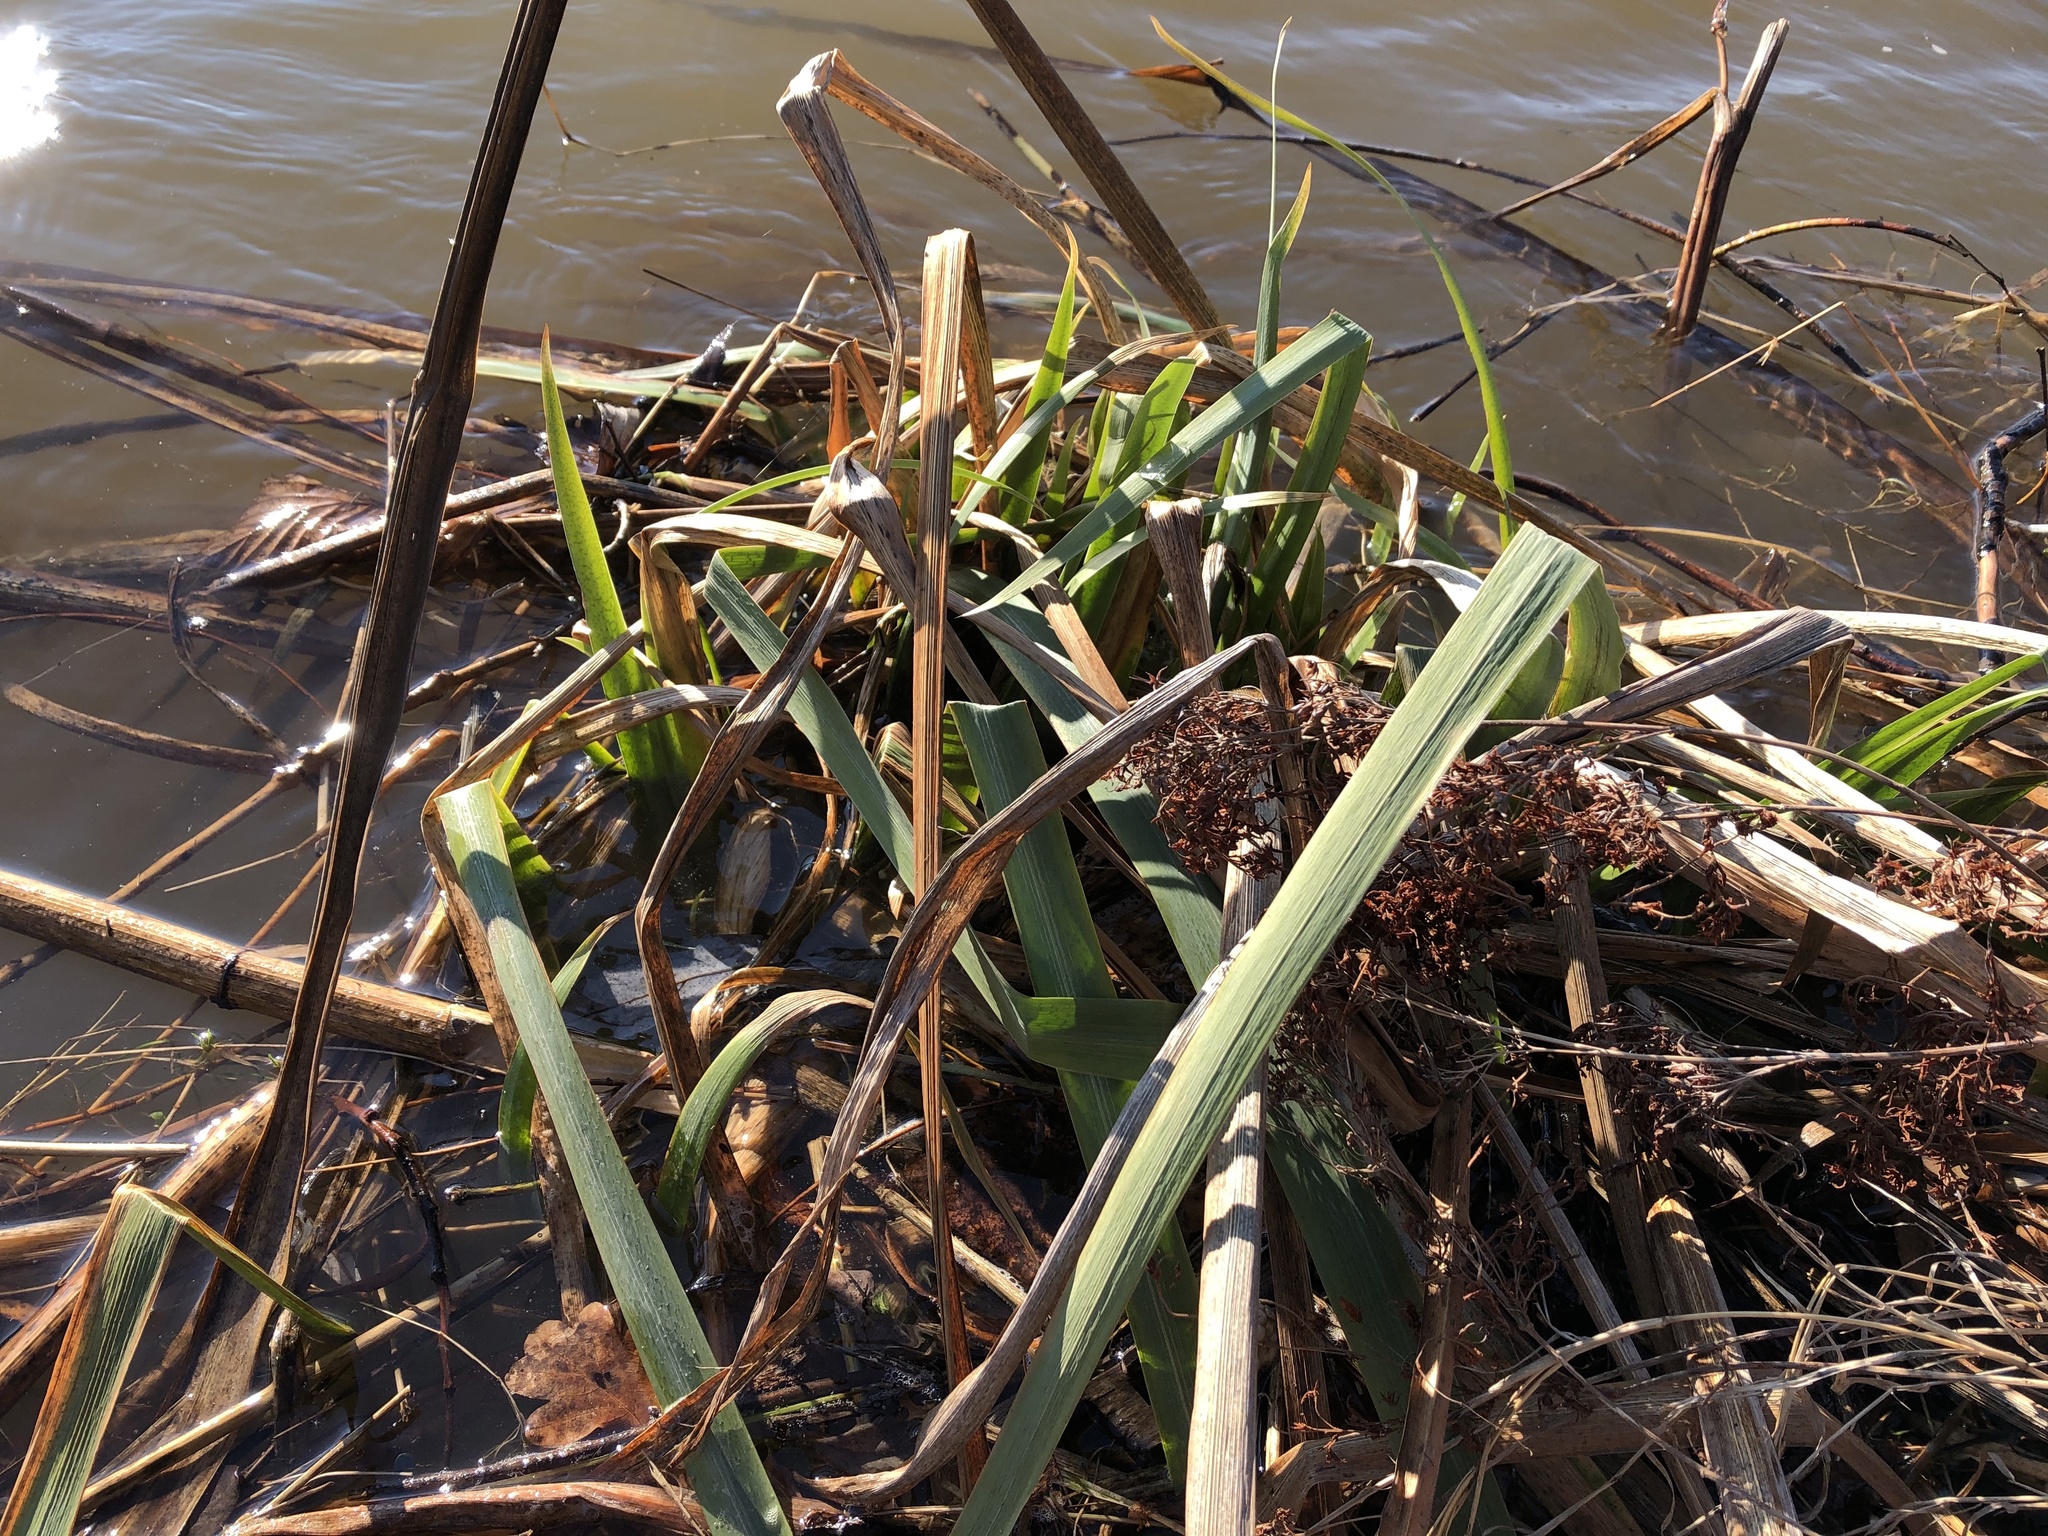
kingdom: Plantae
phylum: Tracheophyta
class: Liliopsida
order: Asparagales
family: Iridaceae
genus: Iris
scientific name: Iris pseudacorus
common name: Yellow flag
